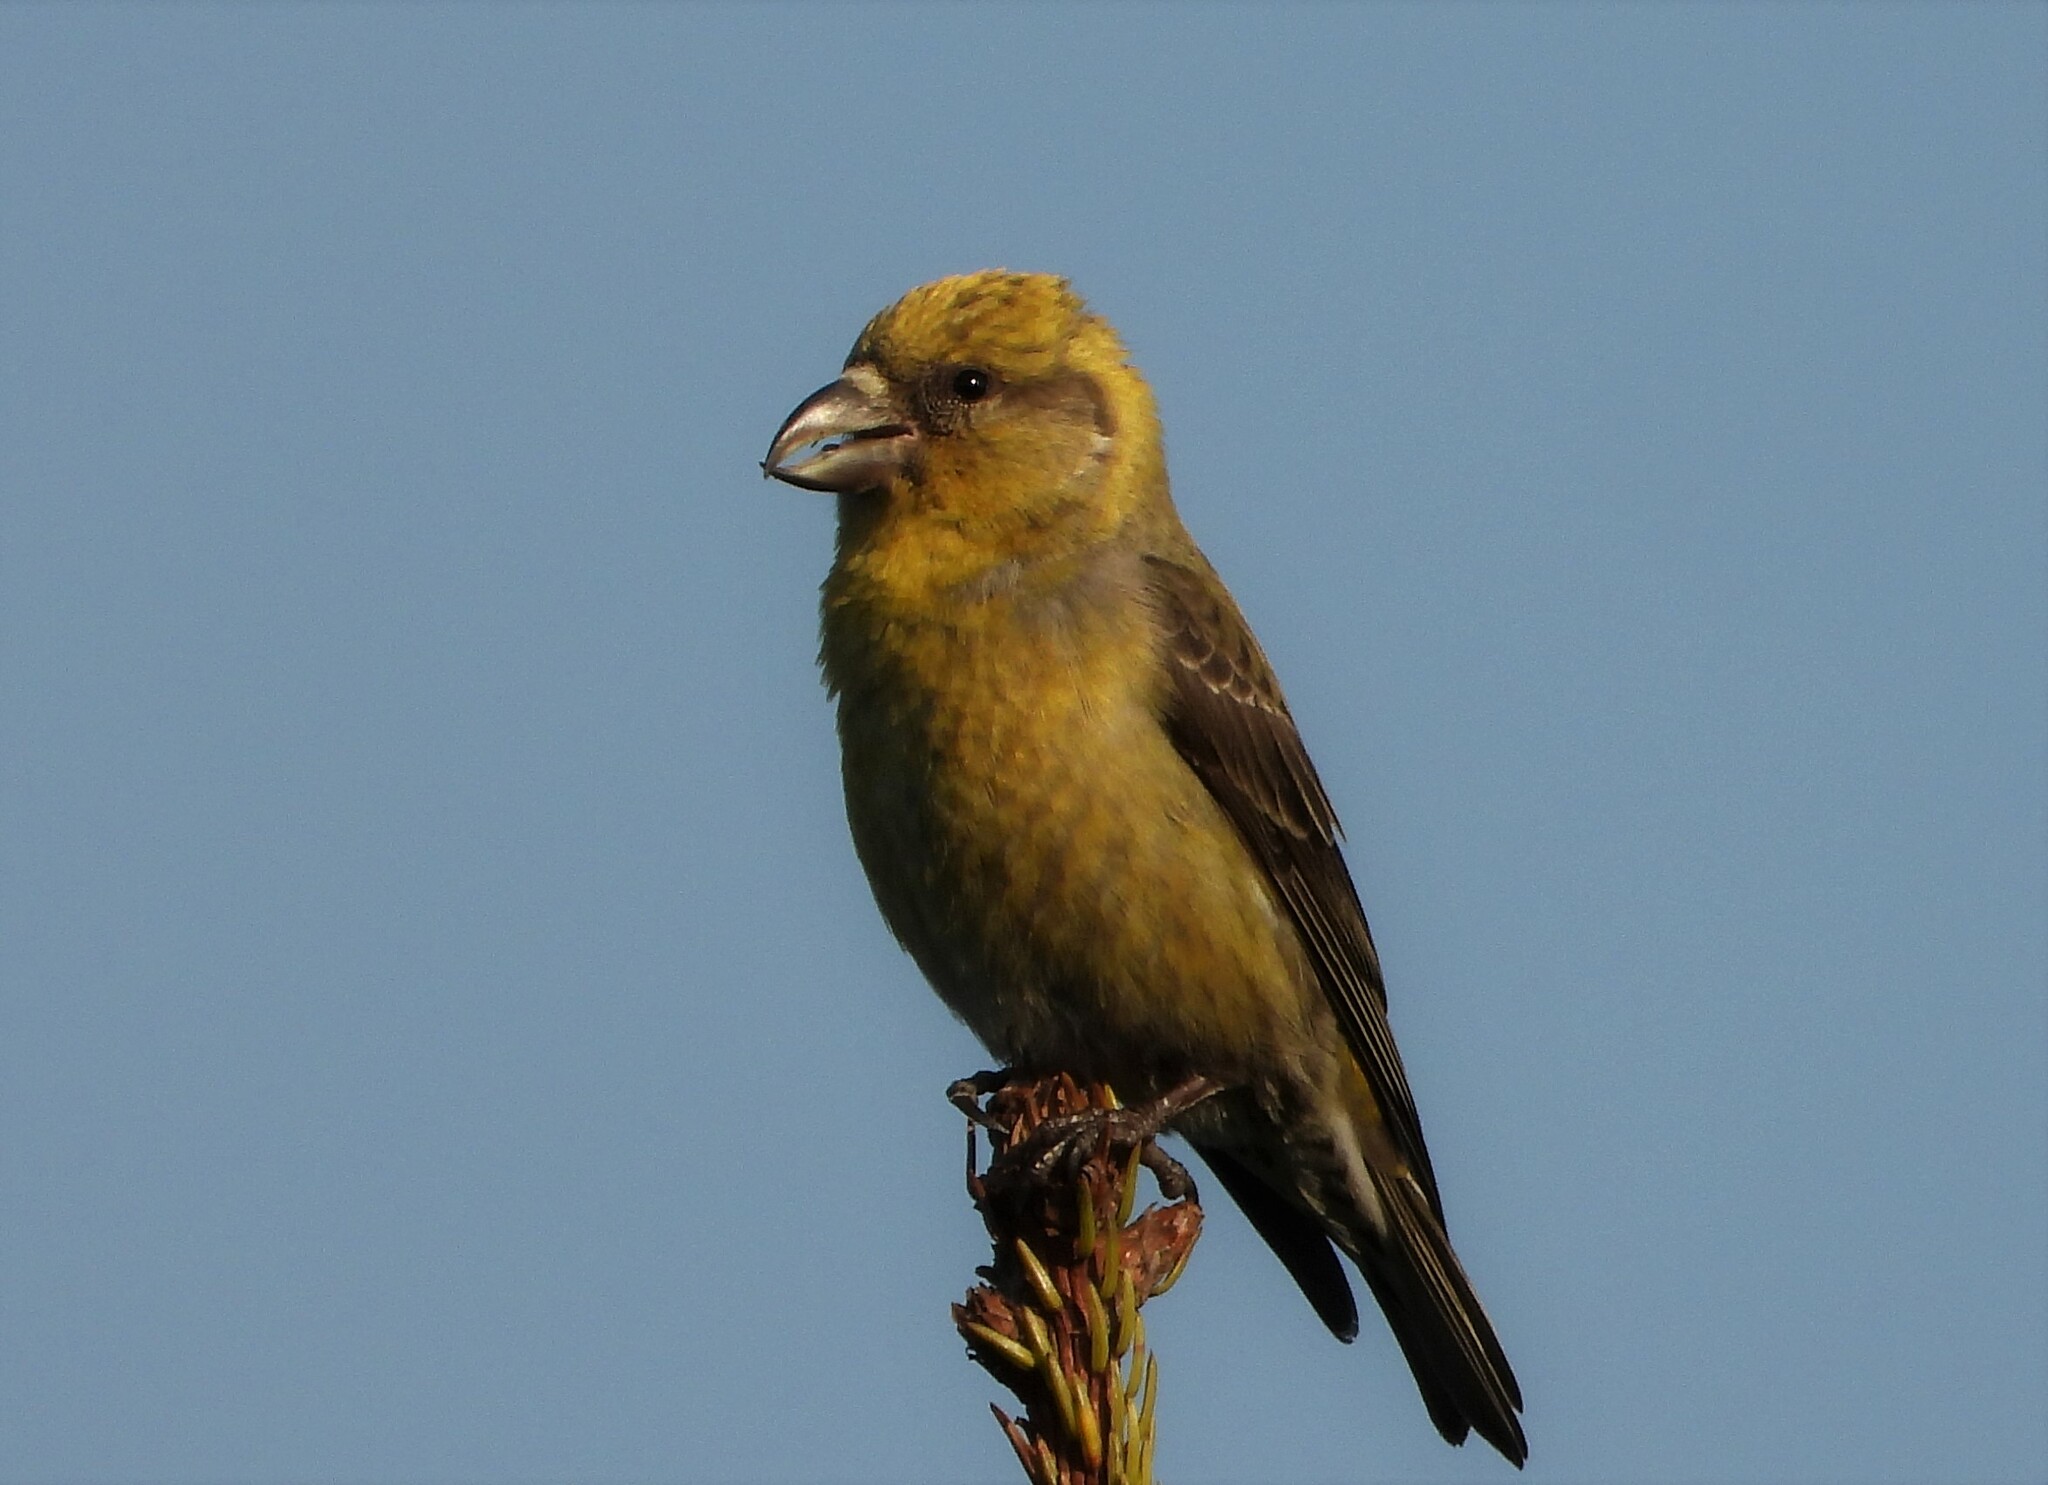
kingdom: Animalia
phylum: Chordata
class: Aves
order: Passeriformes
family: Fringillidae
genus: Loxia
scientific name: Loxia curvirostra
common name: Red crossbill
